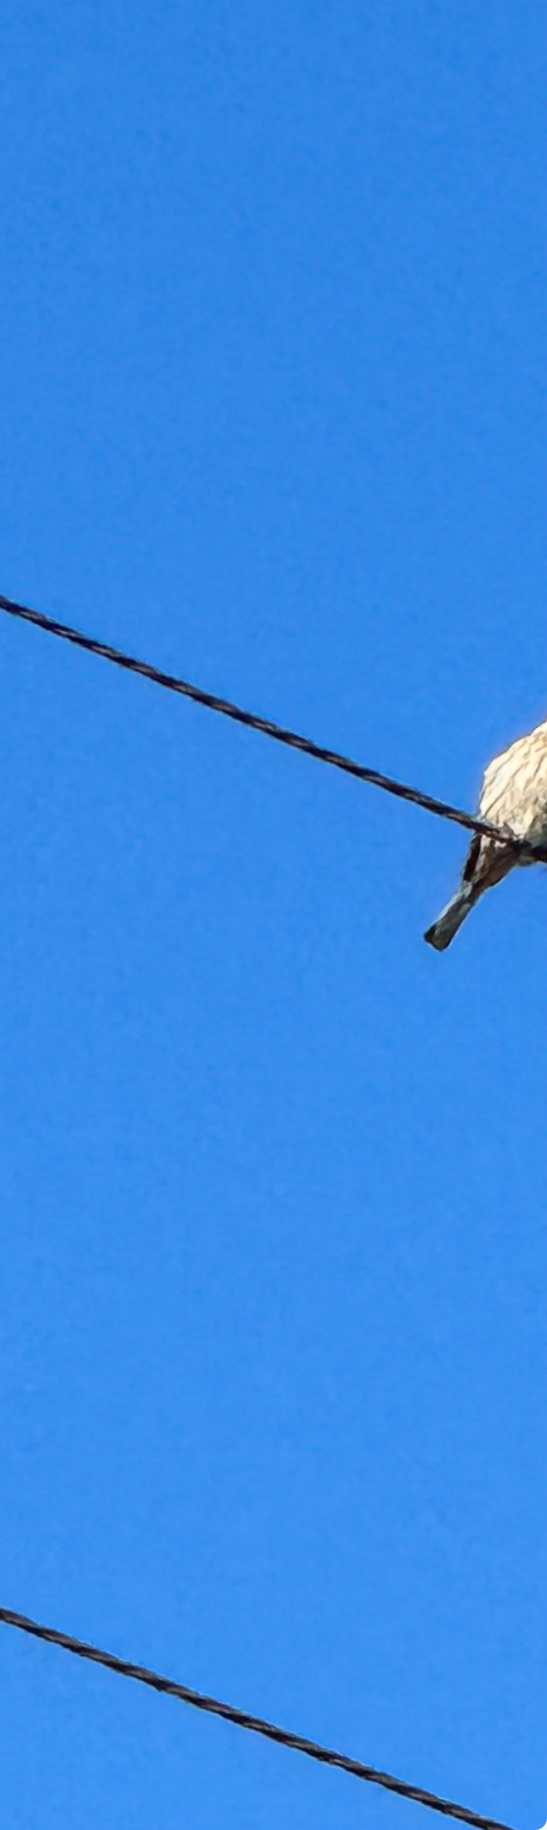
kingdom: Animalia
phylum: Chordata
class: Aves
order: Passeriformes
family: Fringillidae
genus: Haemorhous
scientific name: Haemorhous mexicanus
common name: House finch
